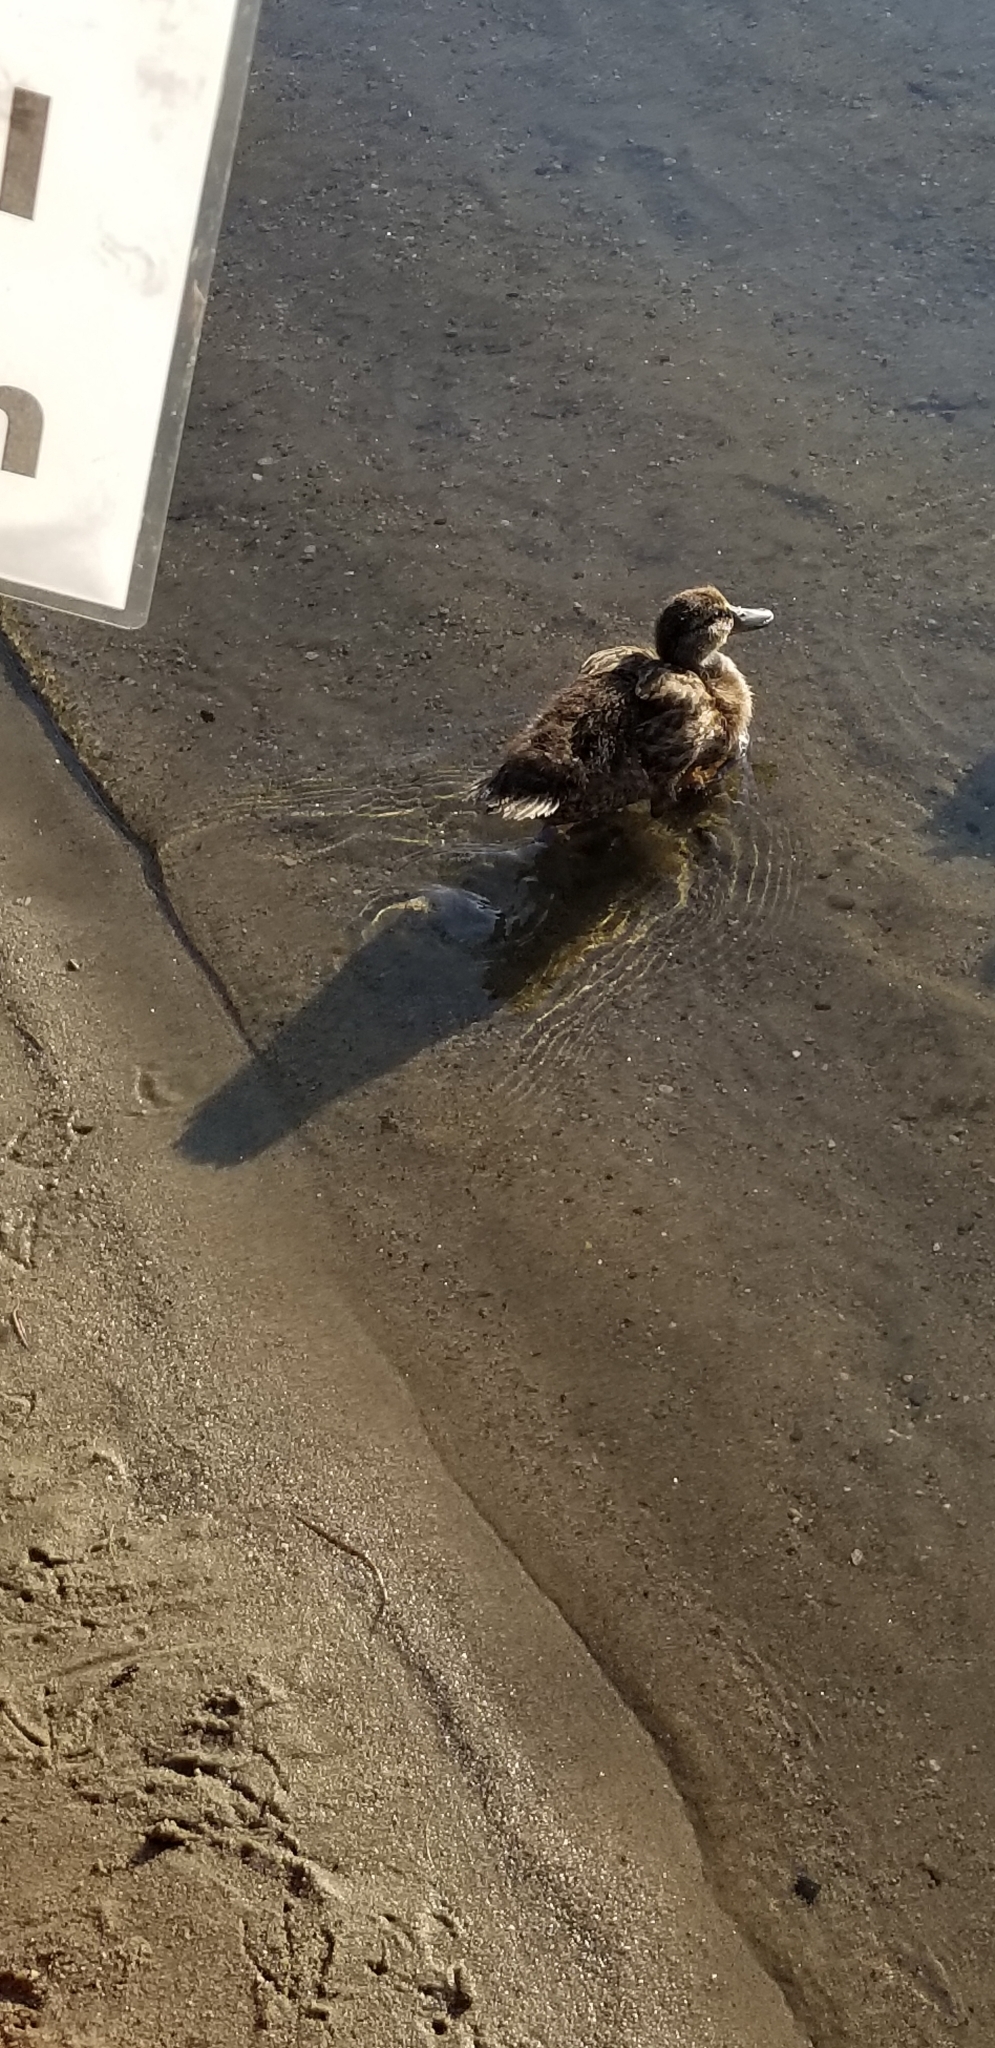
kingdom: Animalia
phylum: Chordata
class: Aves
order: Anseriformes
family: Anatidae
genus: Anas
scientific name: Anas platyrhynchos
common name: Mallard
